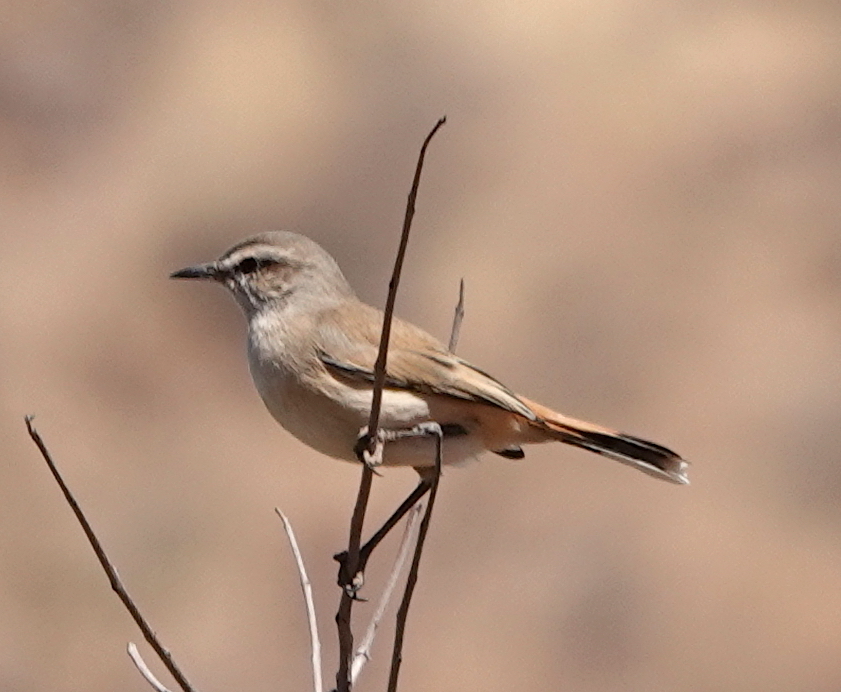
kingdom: Animalia
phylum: Chordata
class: Aves
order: Passeriformes
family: Muscicapidae
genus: Erythropygia
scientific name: Erythropygia paena
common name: Kalahari scrub robin
